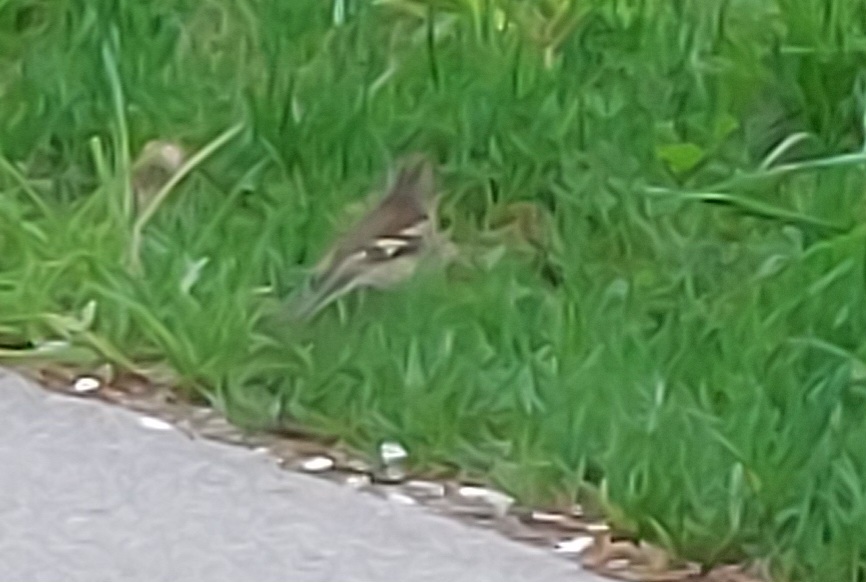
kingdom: Animalia
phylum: Chordata
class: Aves
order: Passeriformes
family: Fringillidae
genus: Fringilla
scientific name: Fringilla coelebs
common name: Common chaffinch
